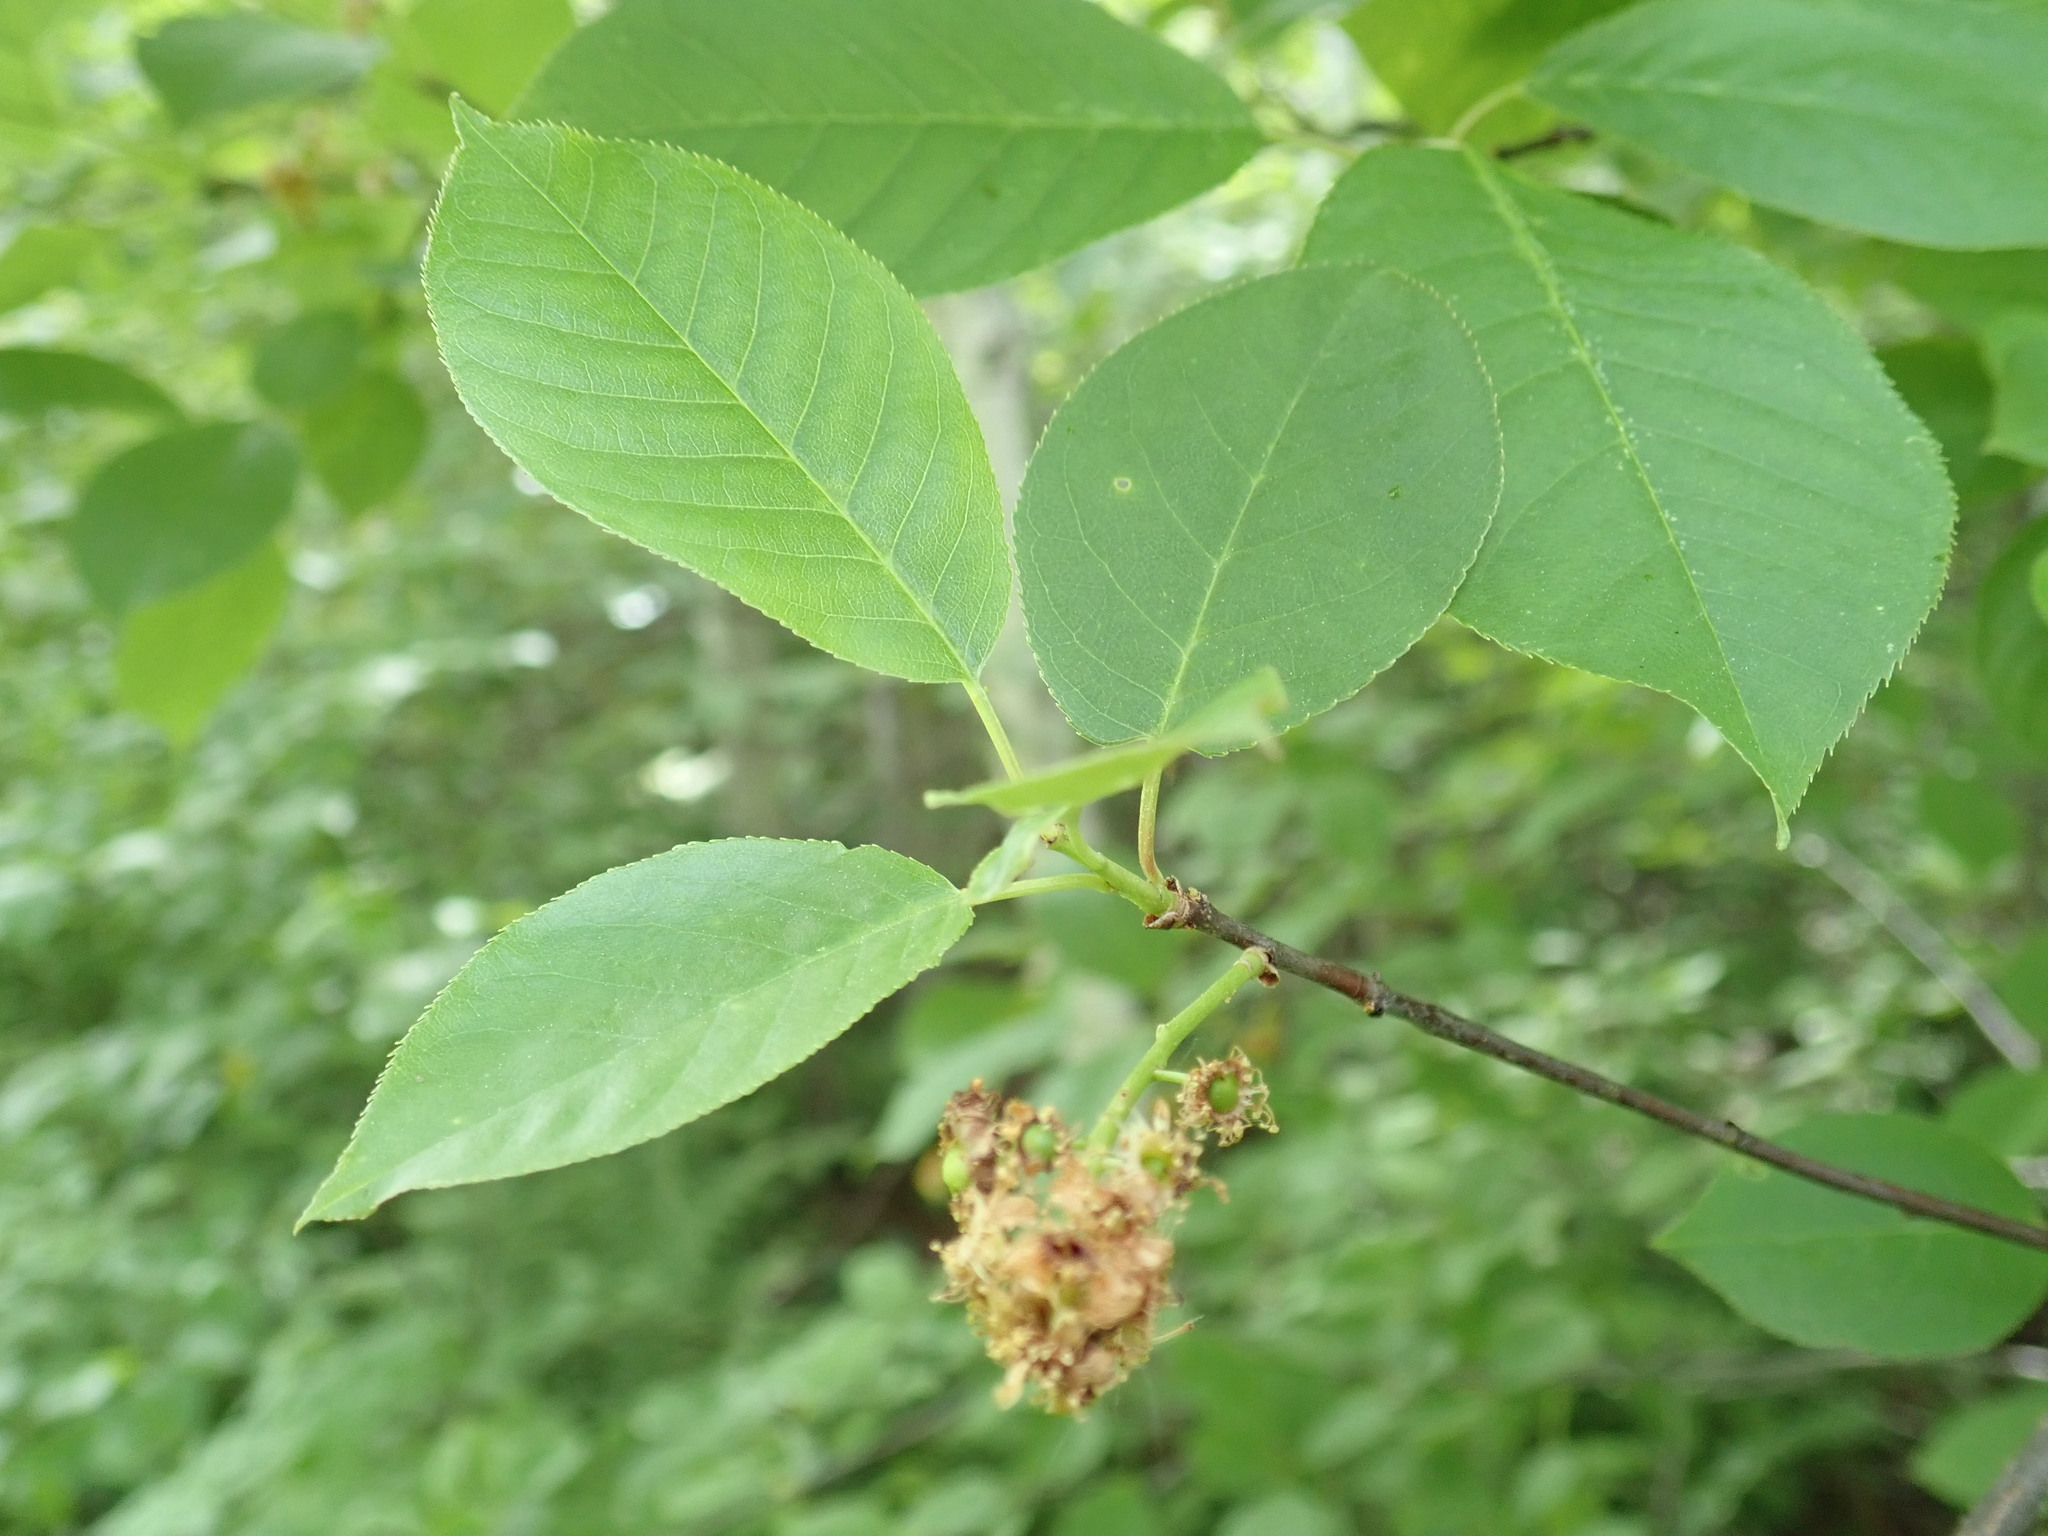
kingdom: Plantae
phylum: Tracheophyta
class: Magnoliopsida
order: Rosales
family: Rosaceae
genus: Prunus
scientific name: Prunus virginiana
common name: Chokecherry
